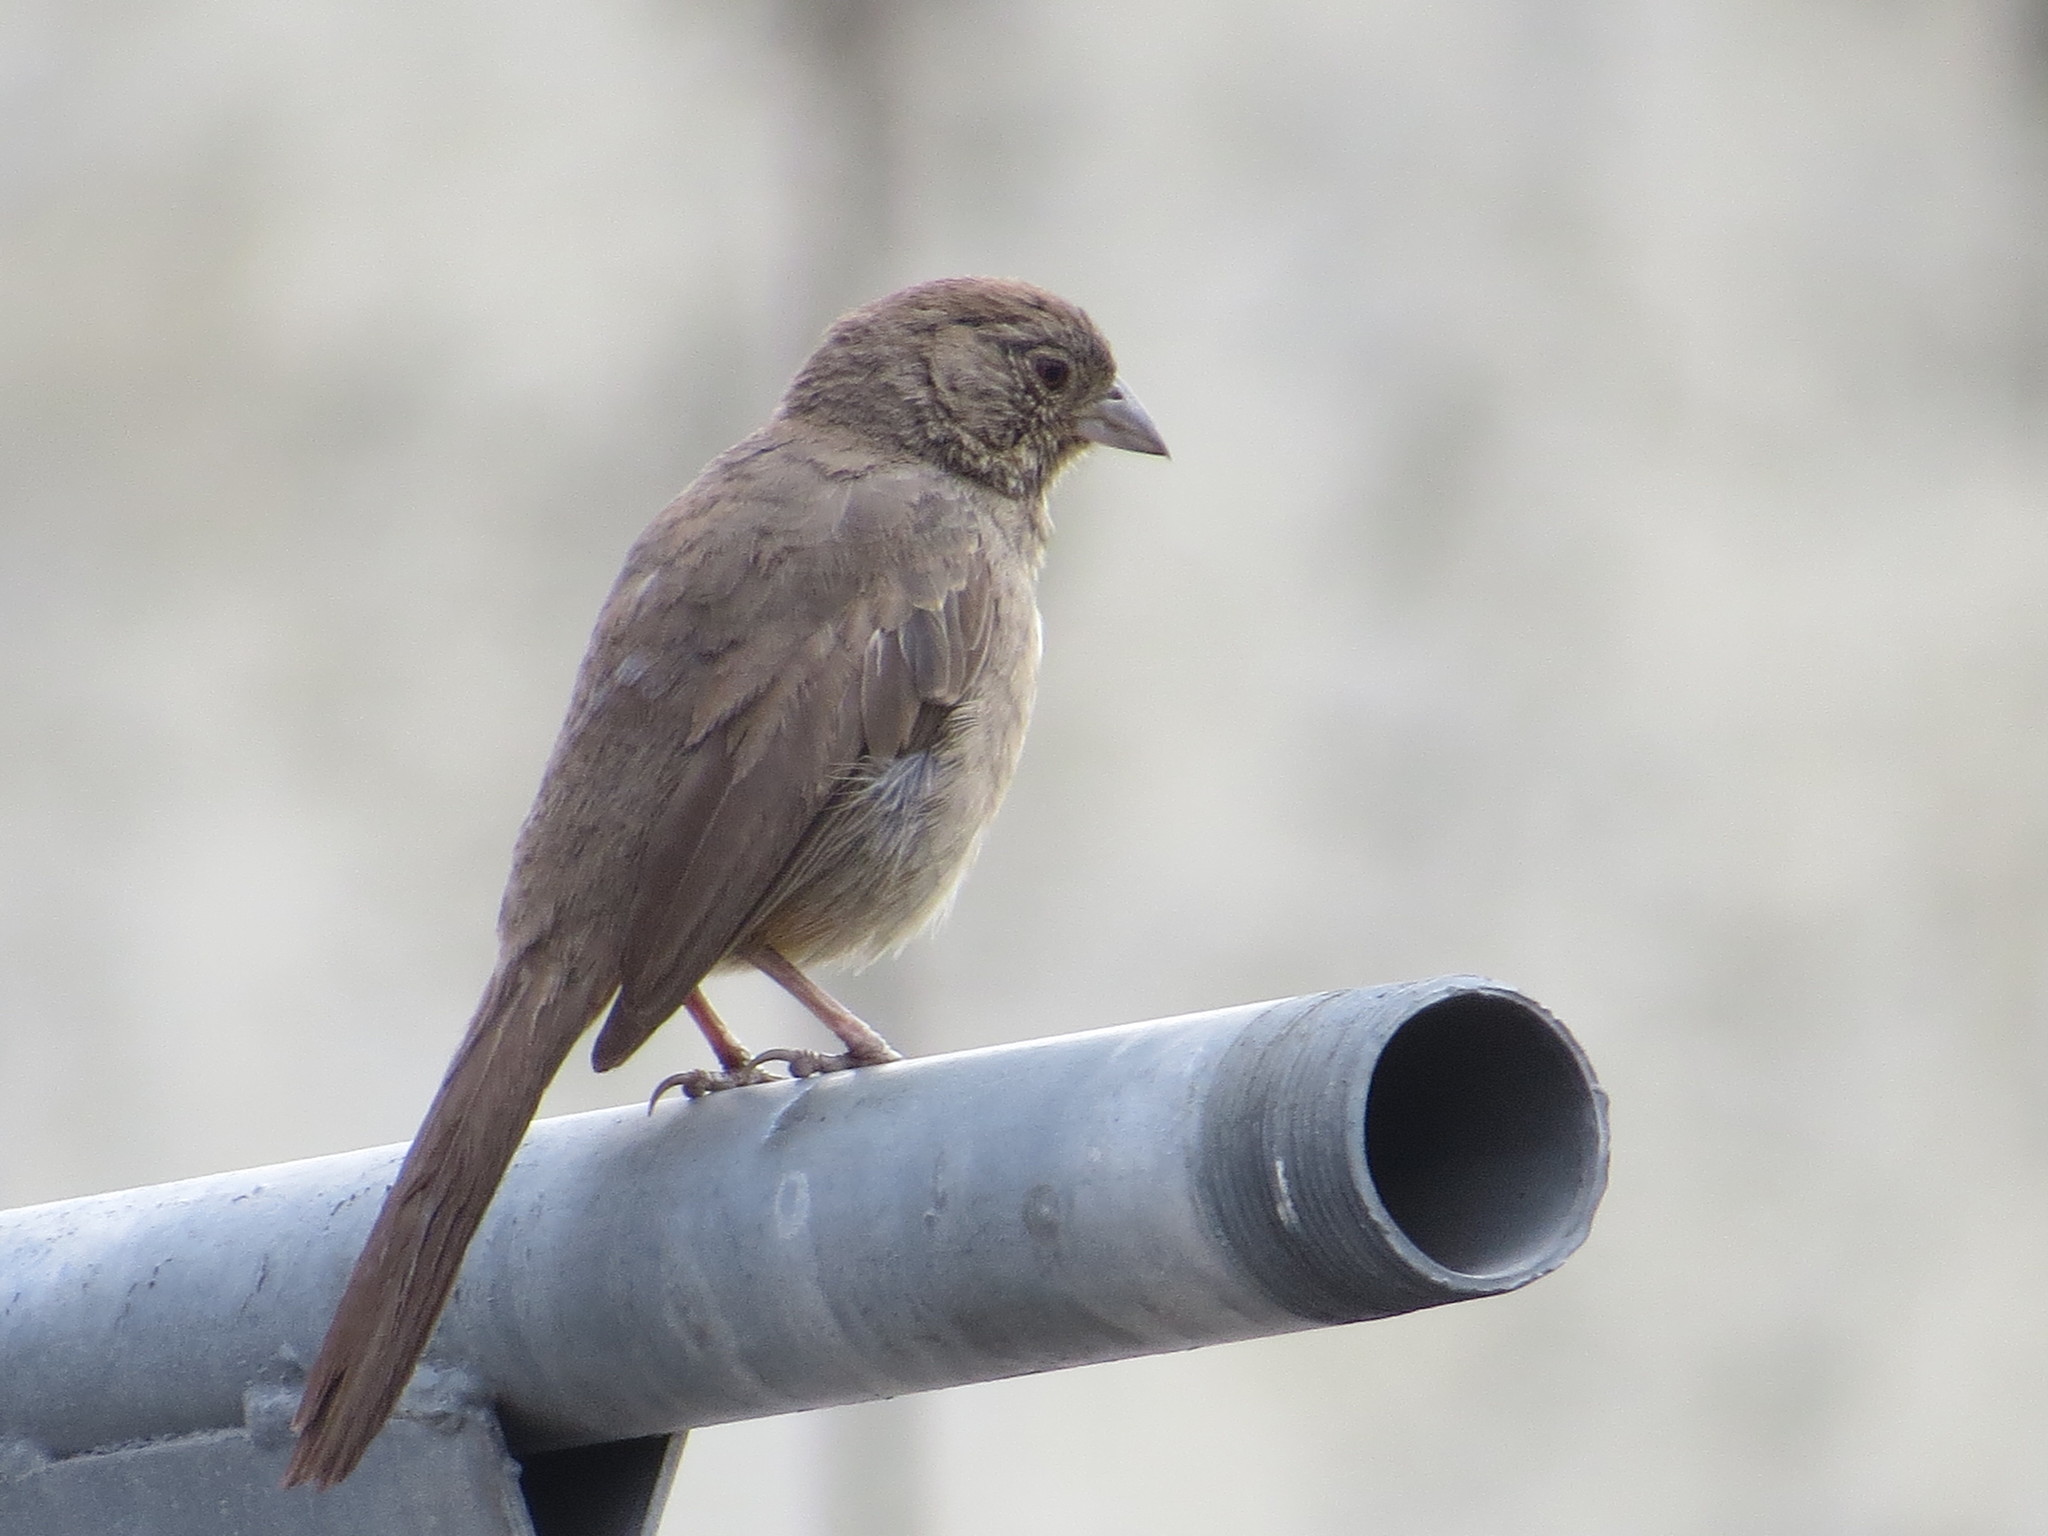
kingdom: Animalia
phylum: Chordata
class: Aves
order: Passeriformes
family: Passerellidae
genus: Melozone
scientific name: Melozone fusca
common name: Canyon towhee
